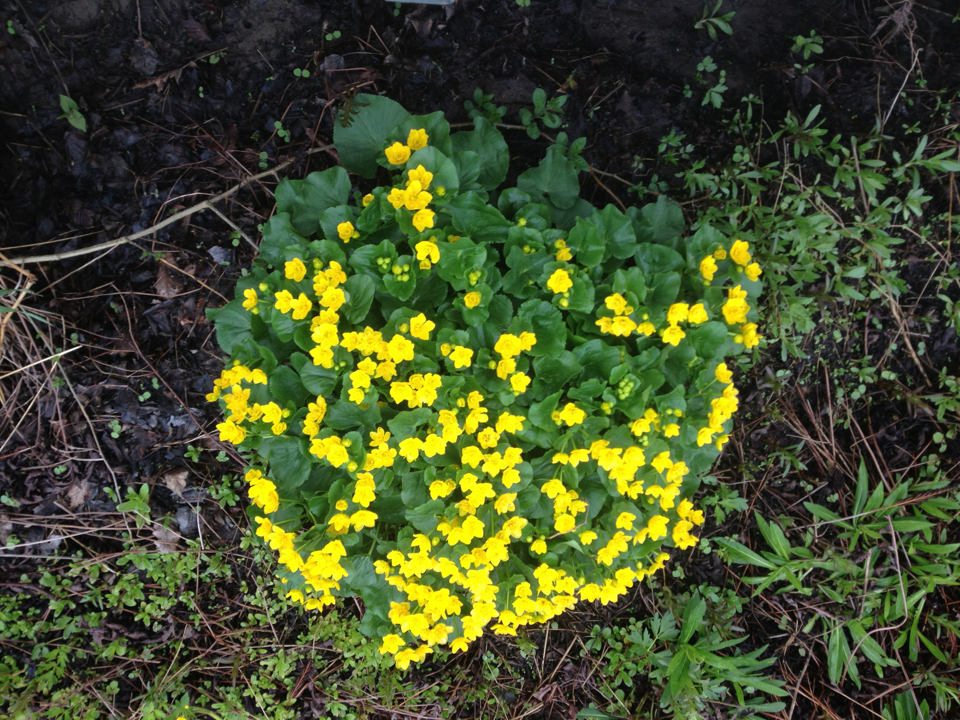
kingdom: Plantae
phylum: Tracheophyta
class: Magnoliopsida
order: Ranunculales
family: Ranunculaceae
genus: Caltha
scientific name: Caltha palustris
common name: Marsh marigold
